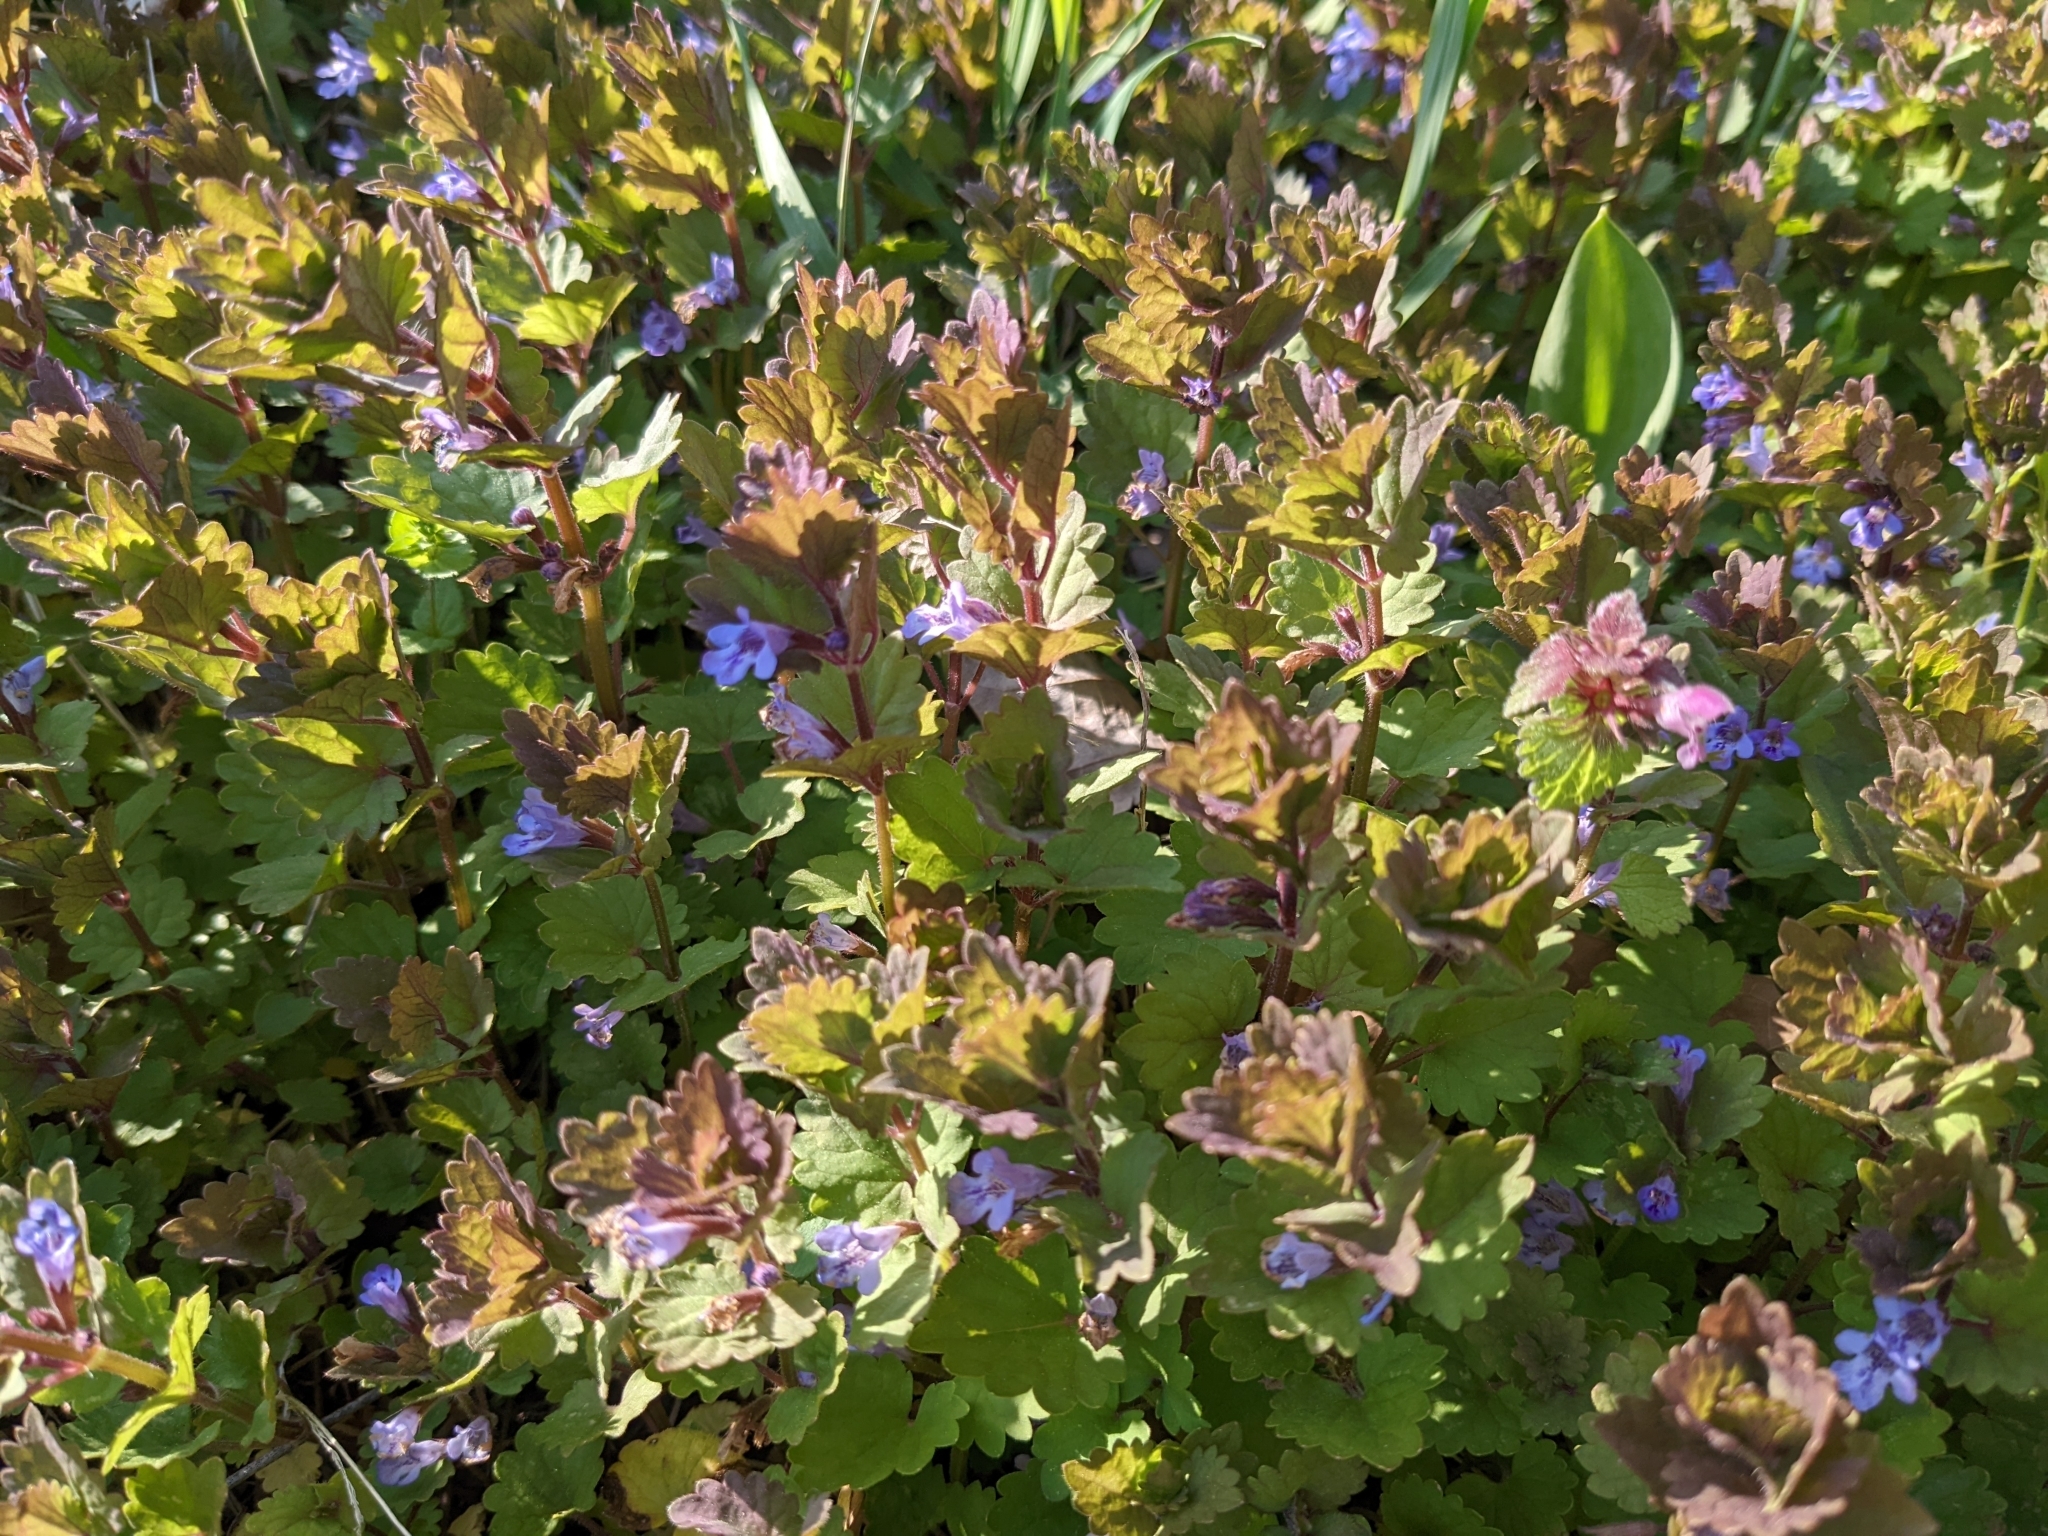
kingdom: Plantae
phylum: Tracheophyta
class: Magnoliopsida
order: Lamiales
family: Lamiaceae
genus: Glechoma
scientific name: Glechoma hederacea
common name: Ground ivy
